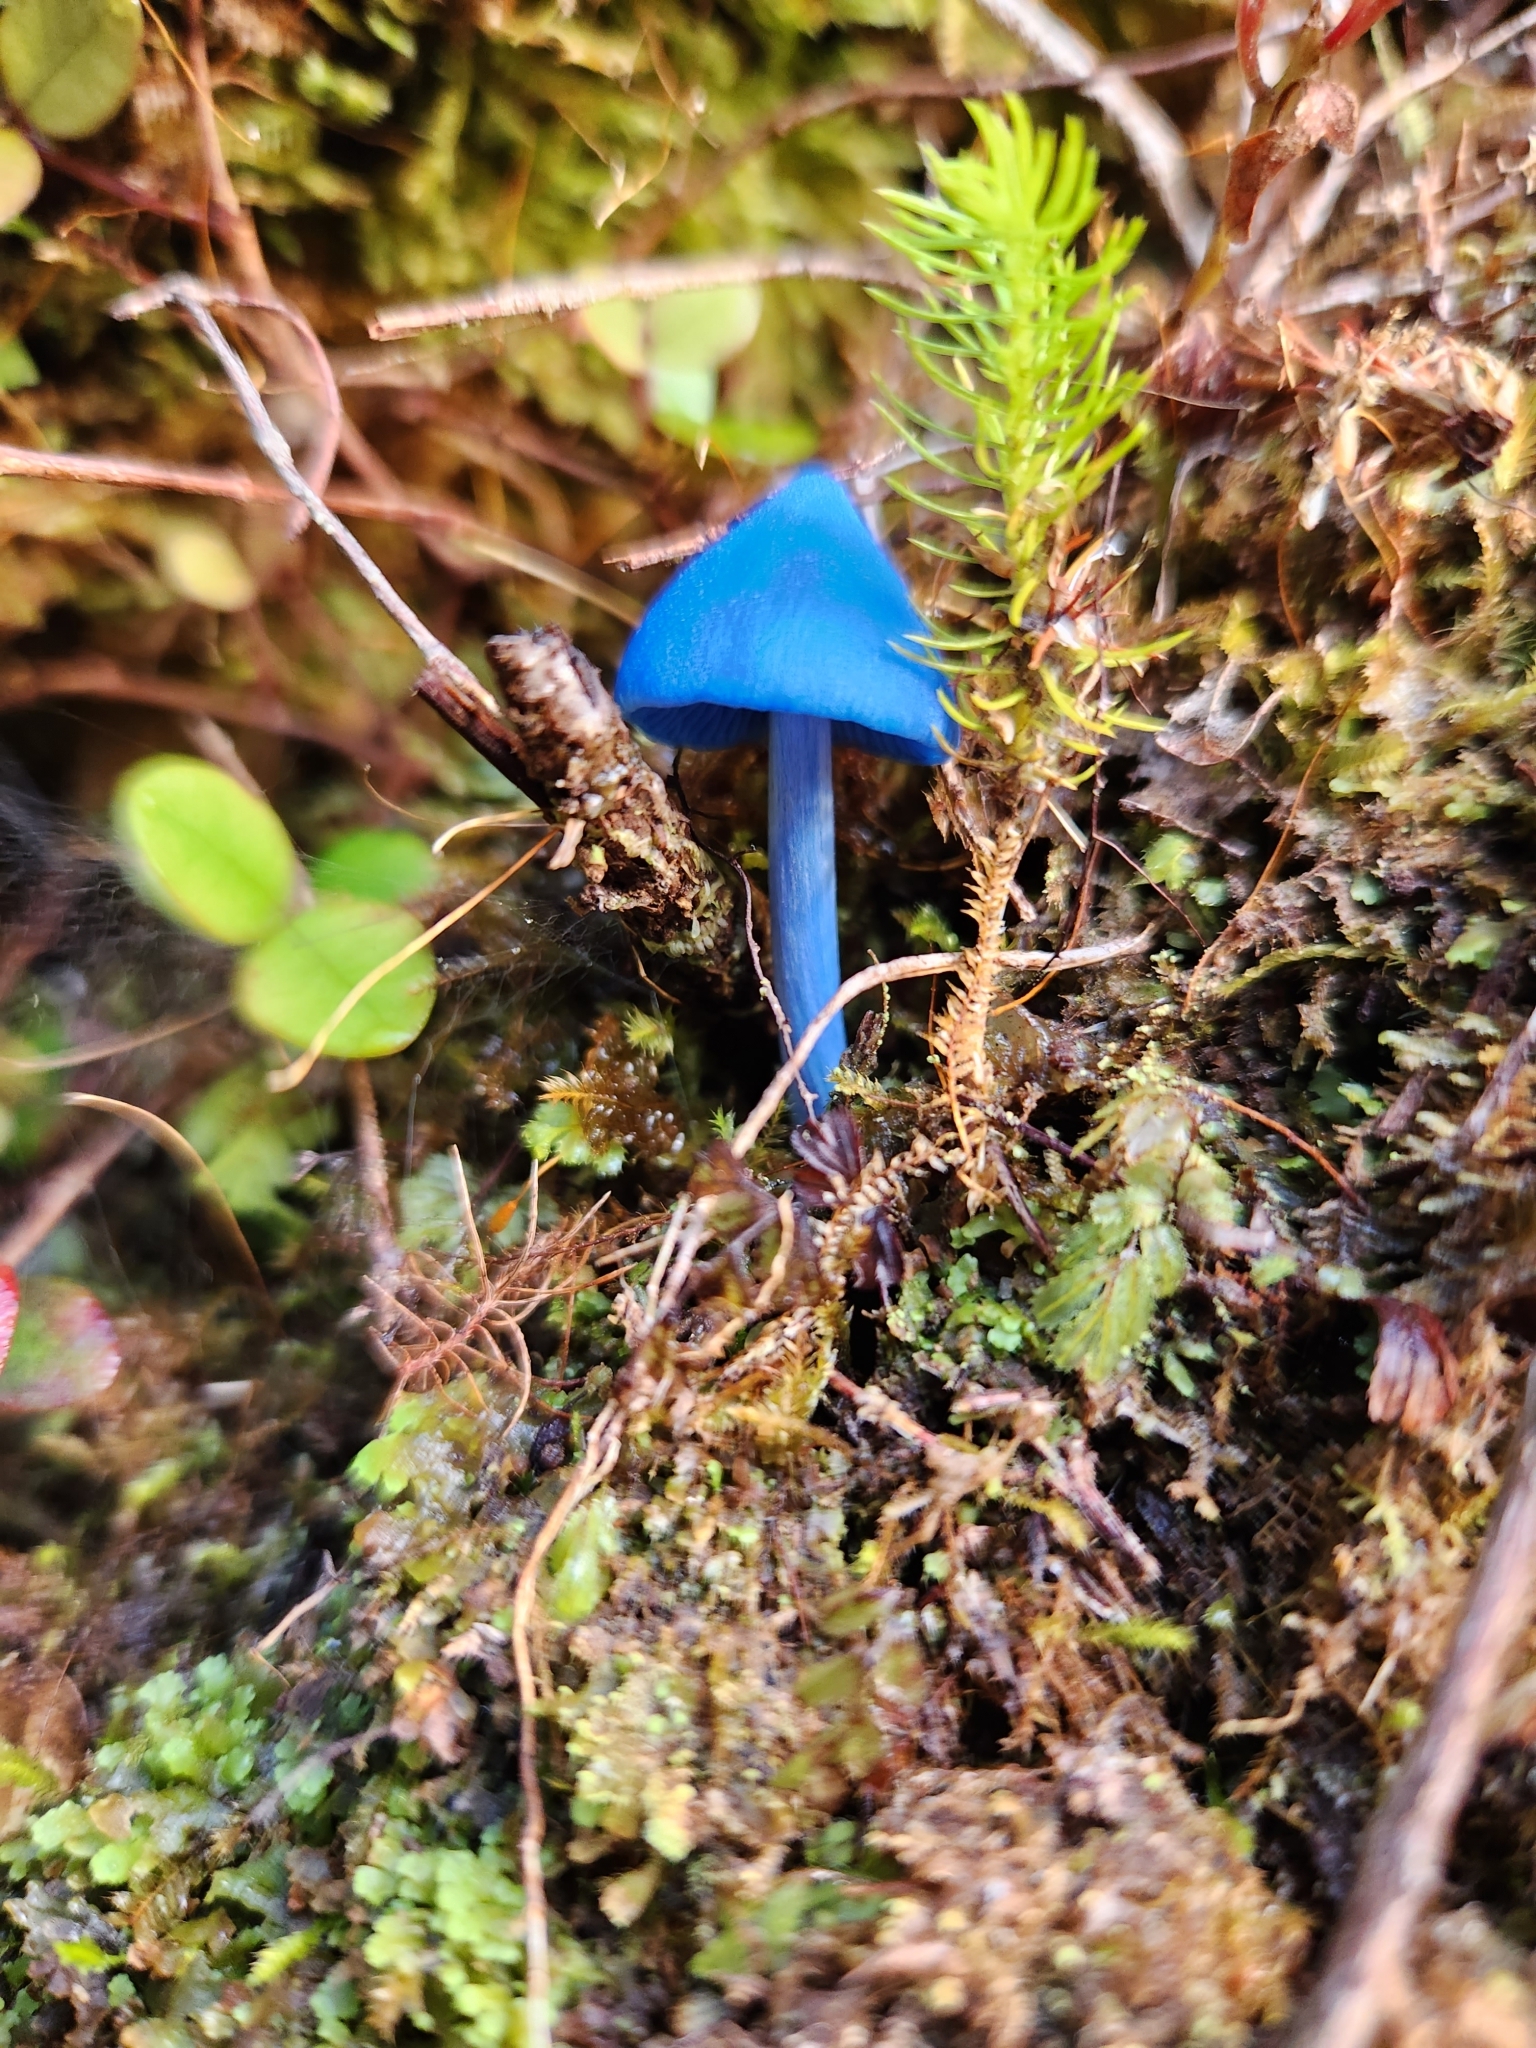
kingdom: Fungi
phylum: Basidiomycota
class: Agaricomycetes
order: Agaricales
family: Entolomataceae
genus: Entoloma
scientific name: Entoloma hochstetteri
